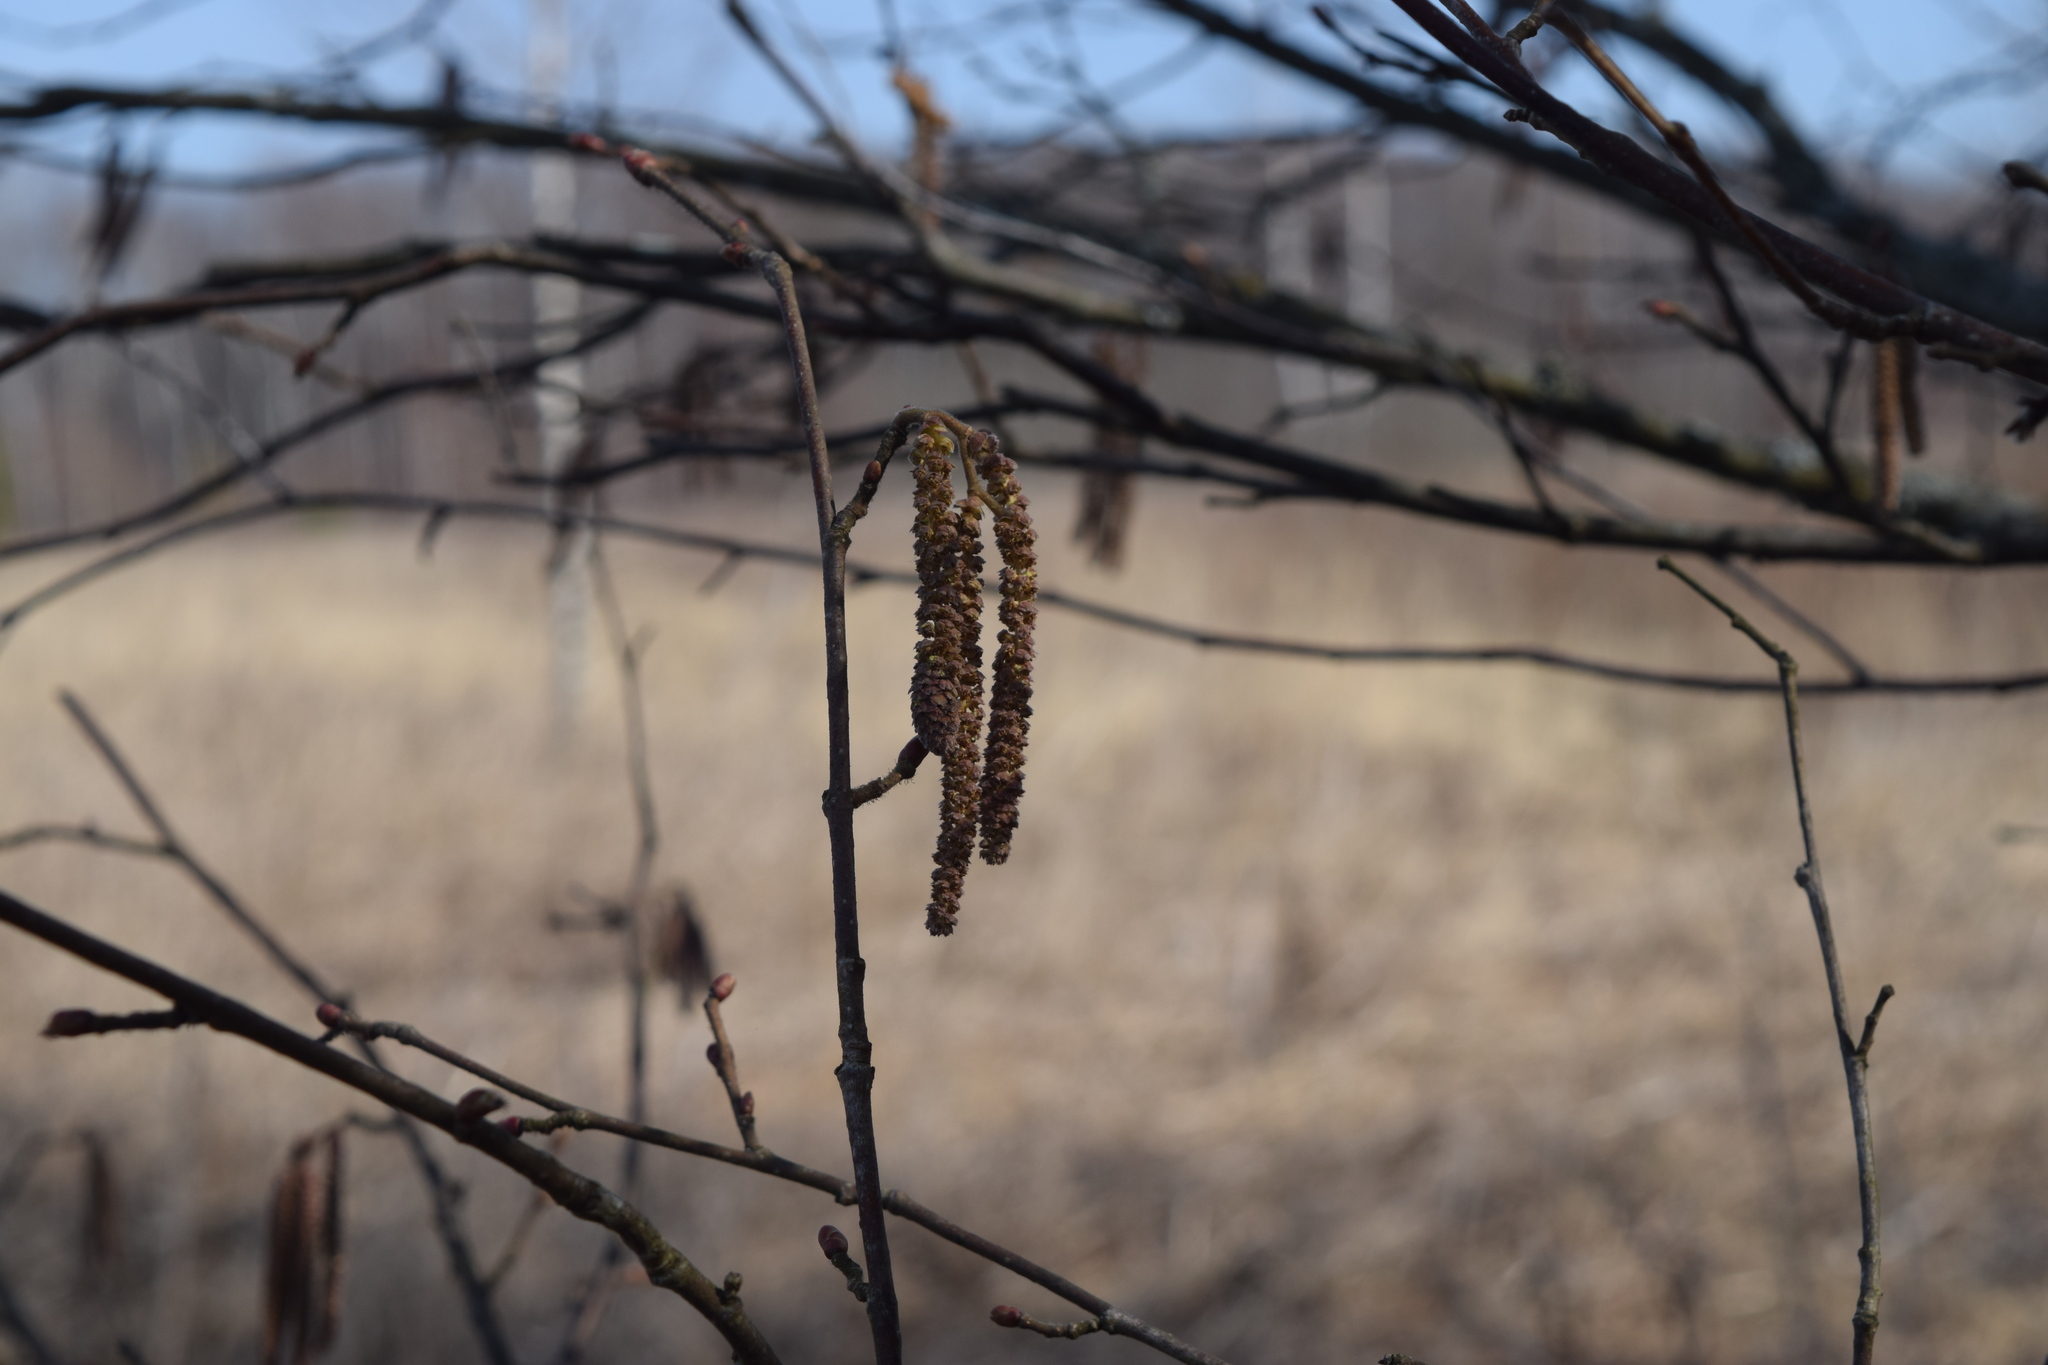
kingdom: Plantae
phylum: Tracheophyta
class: Magnoliopsida
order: Fagales
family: Betulaceae
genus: Corylus
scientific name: Corylus avellana
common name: European hazel
